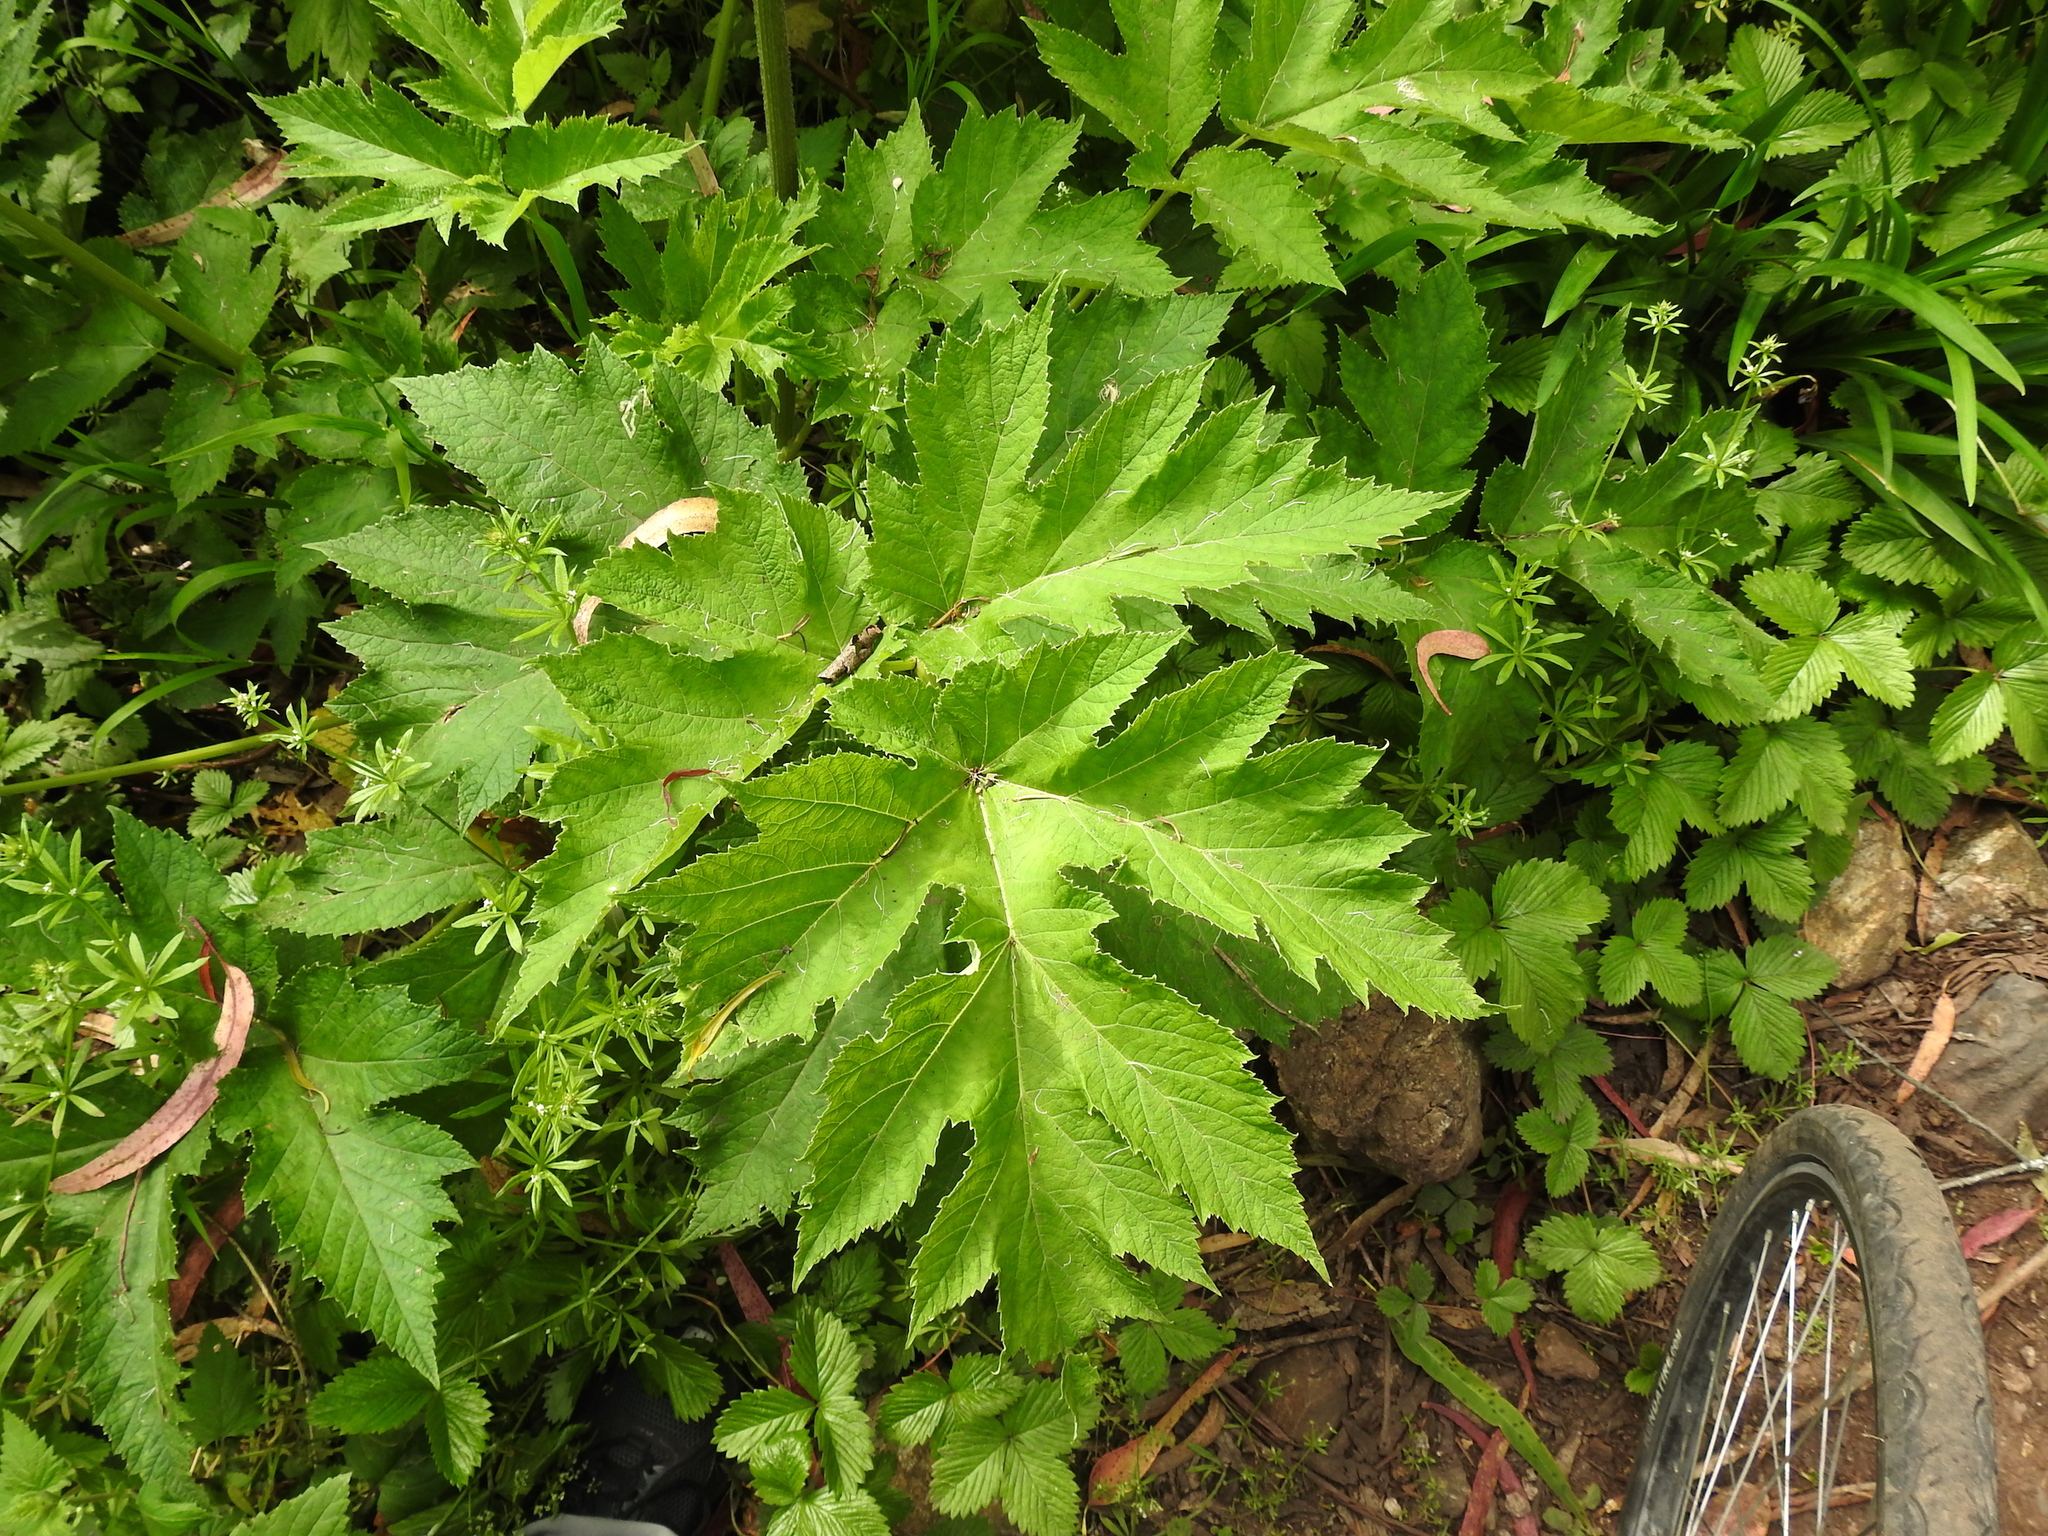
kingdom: Plantae
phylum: Tracheophyta
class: Magnoliopsida
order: Apiales
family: Apiaceae
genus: Heracleum
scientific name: Heracleum maximum
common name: American cow parsnip
